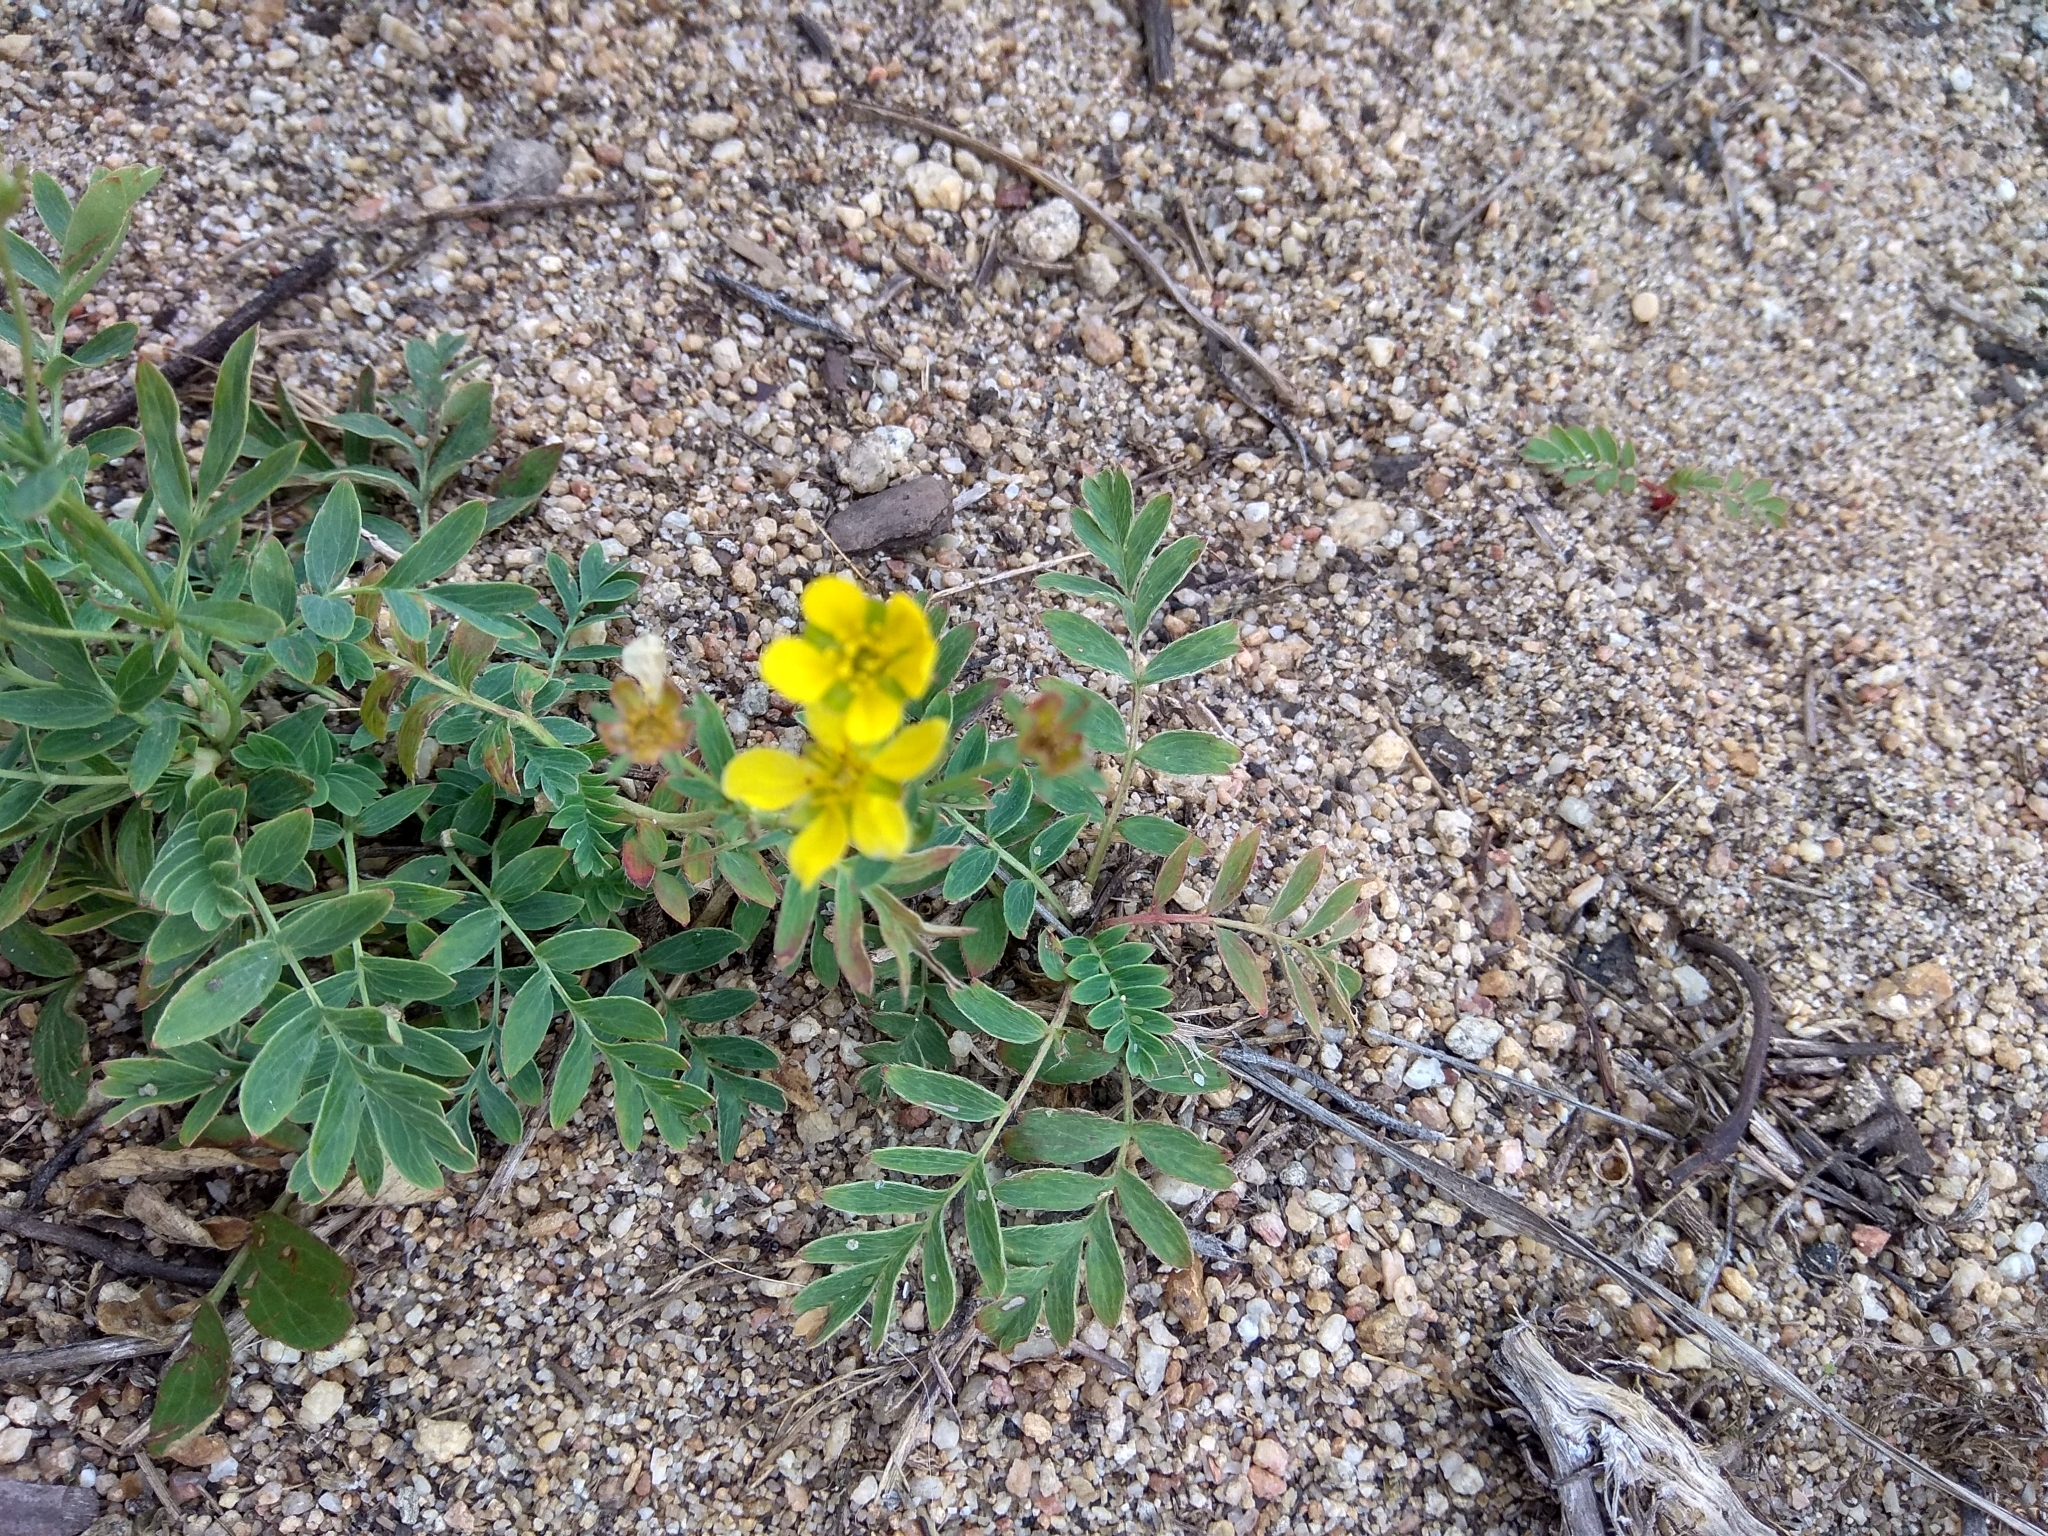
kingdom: Plantae
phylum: Tracheophyta
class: Magnoliopsida
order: Rosales
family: Rosaceae
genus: Sibbaldianthe
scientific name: Sibbaldianthe bifurca
